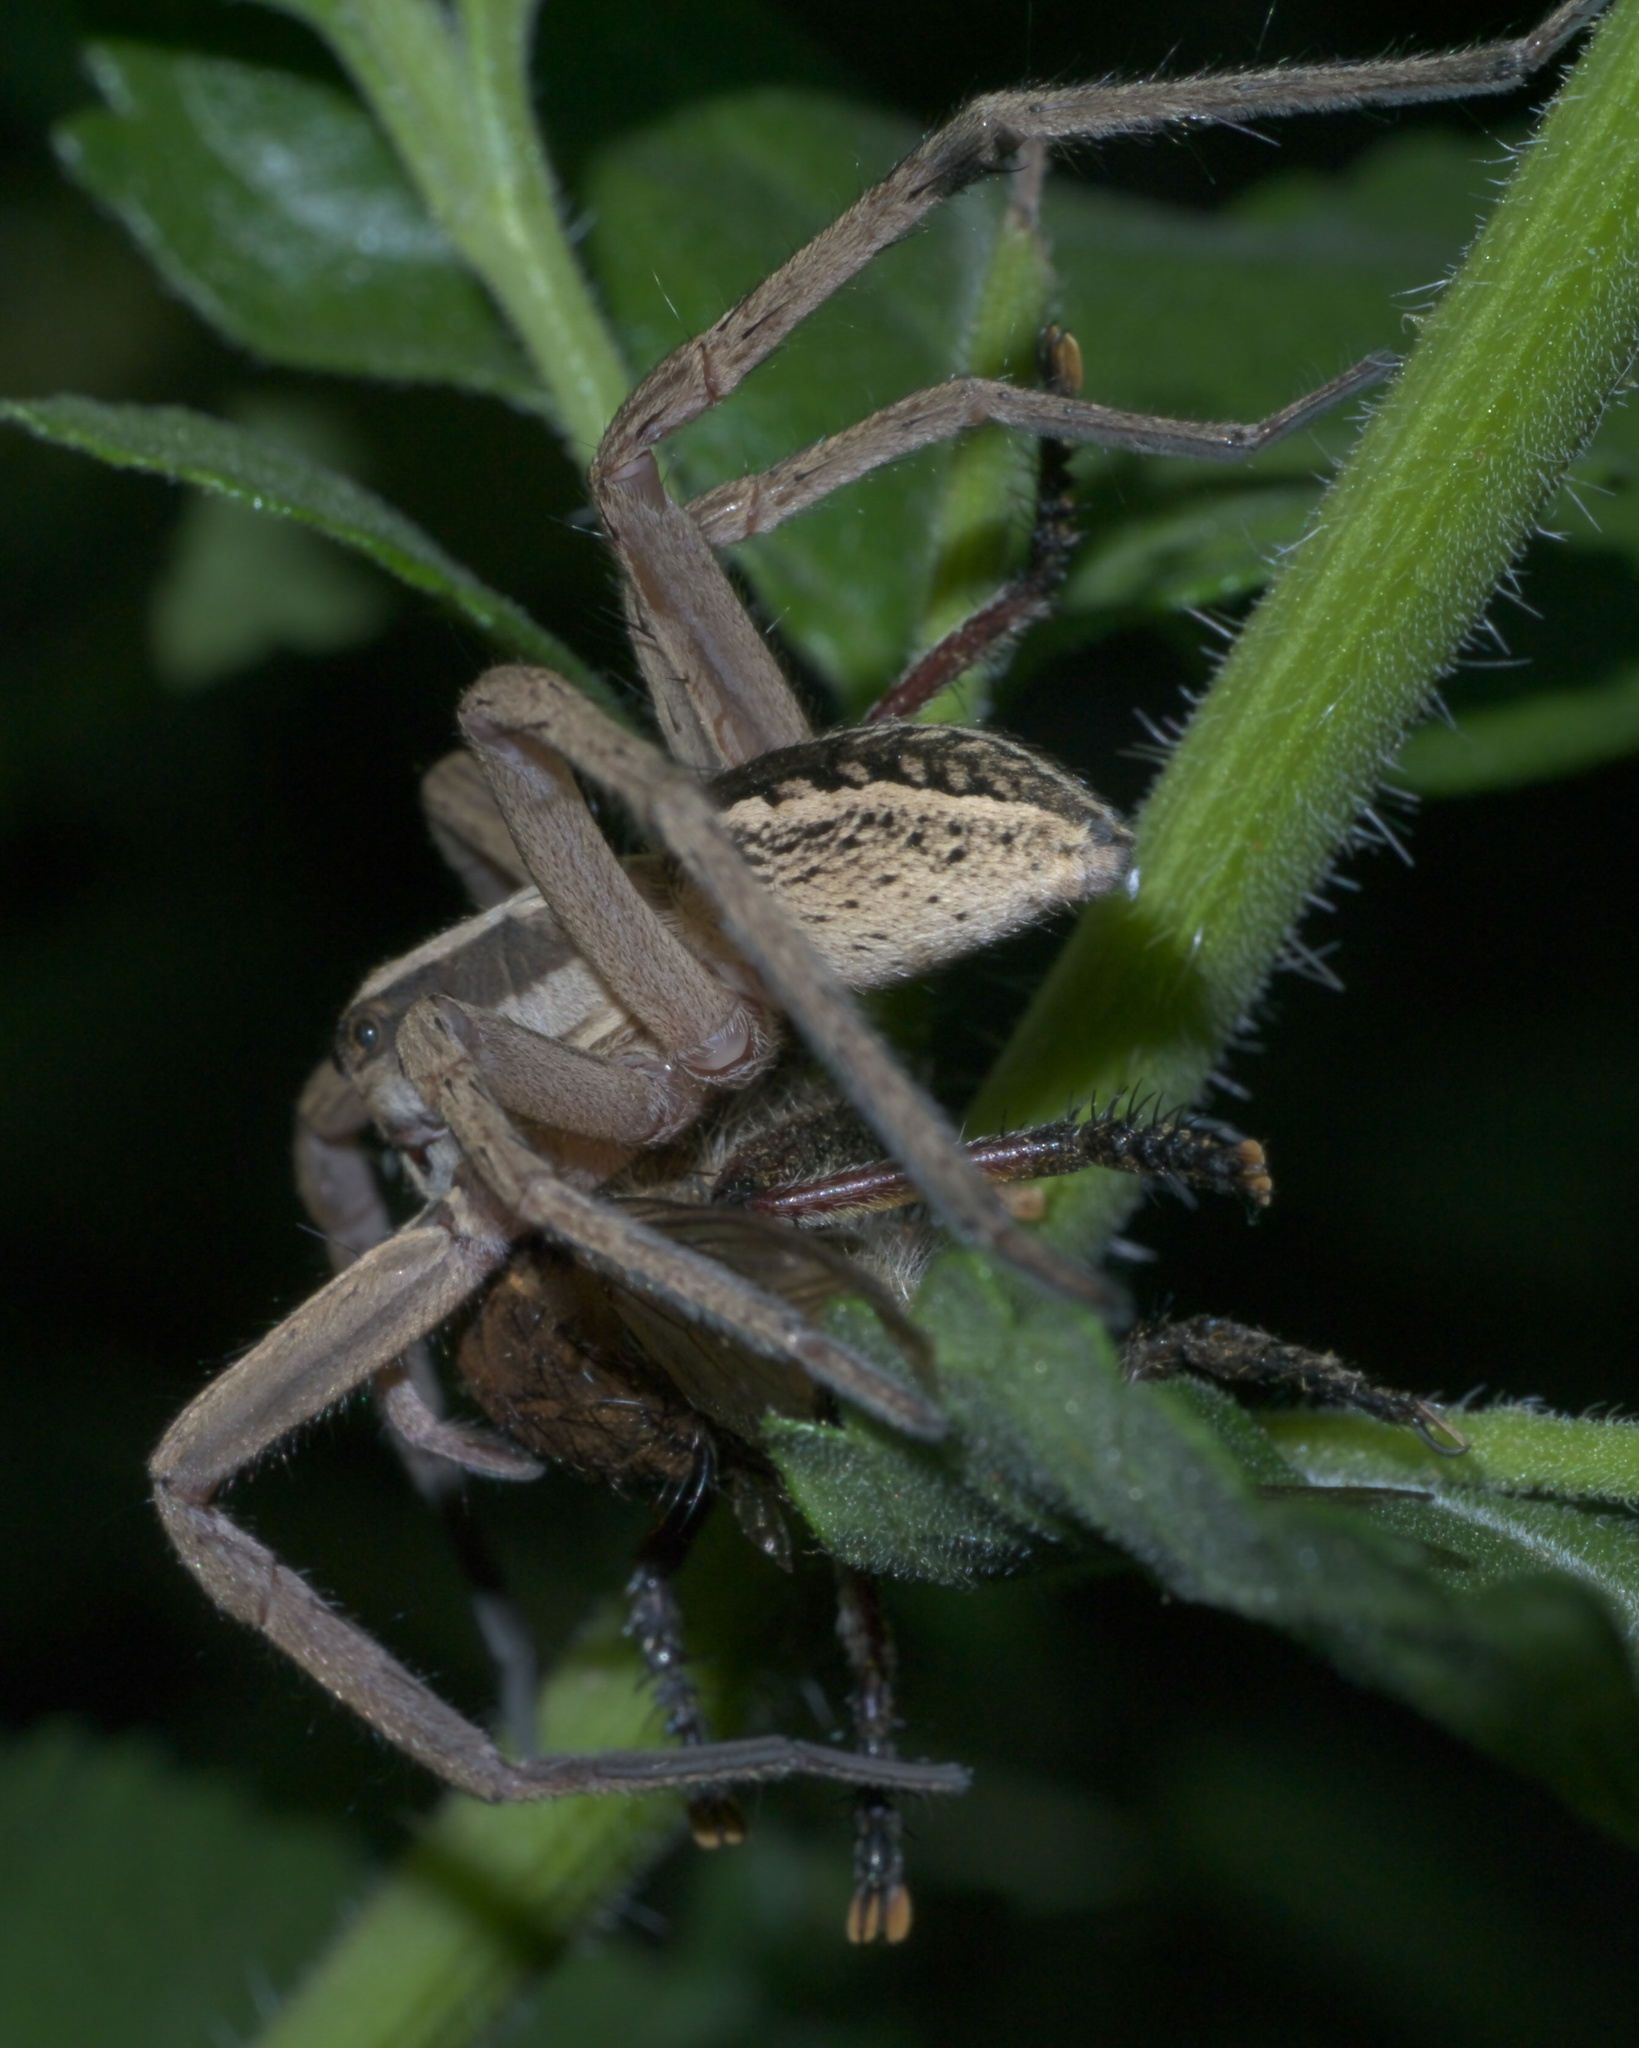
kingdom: Animalia
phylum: Arthropoda
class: Arachnida
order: Araneae
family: Lycosidae
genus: Rabidosa
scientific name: Rabidosa rabida
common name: Rabid wolf spider
